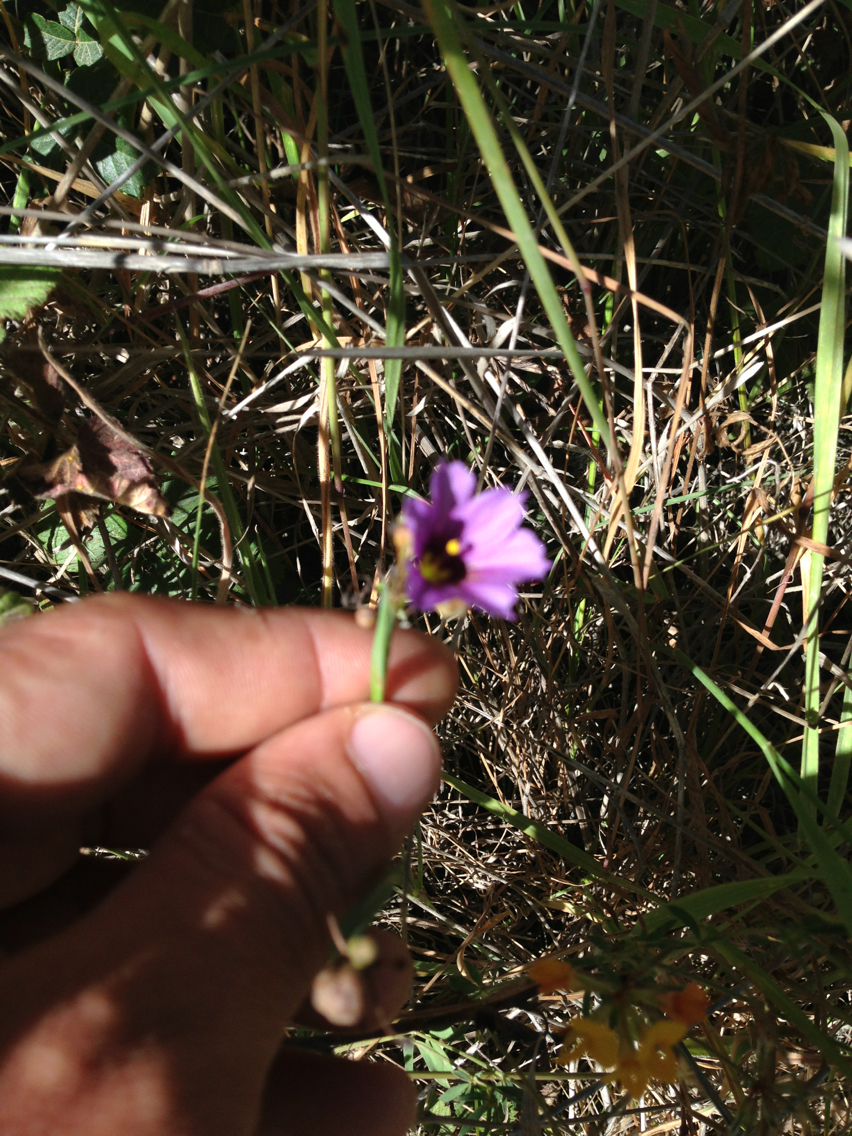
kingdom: Plantae
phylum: Tracheophyta
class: Liliopsida
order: Asparagales
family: Iridaceae
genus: Sisyrinchium
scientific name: Sisyrinchium bellum
